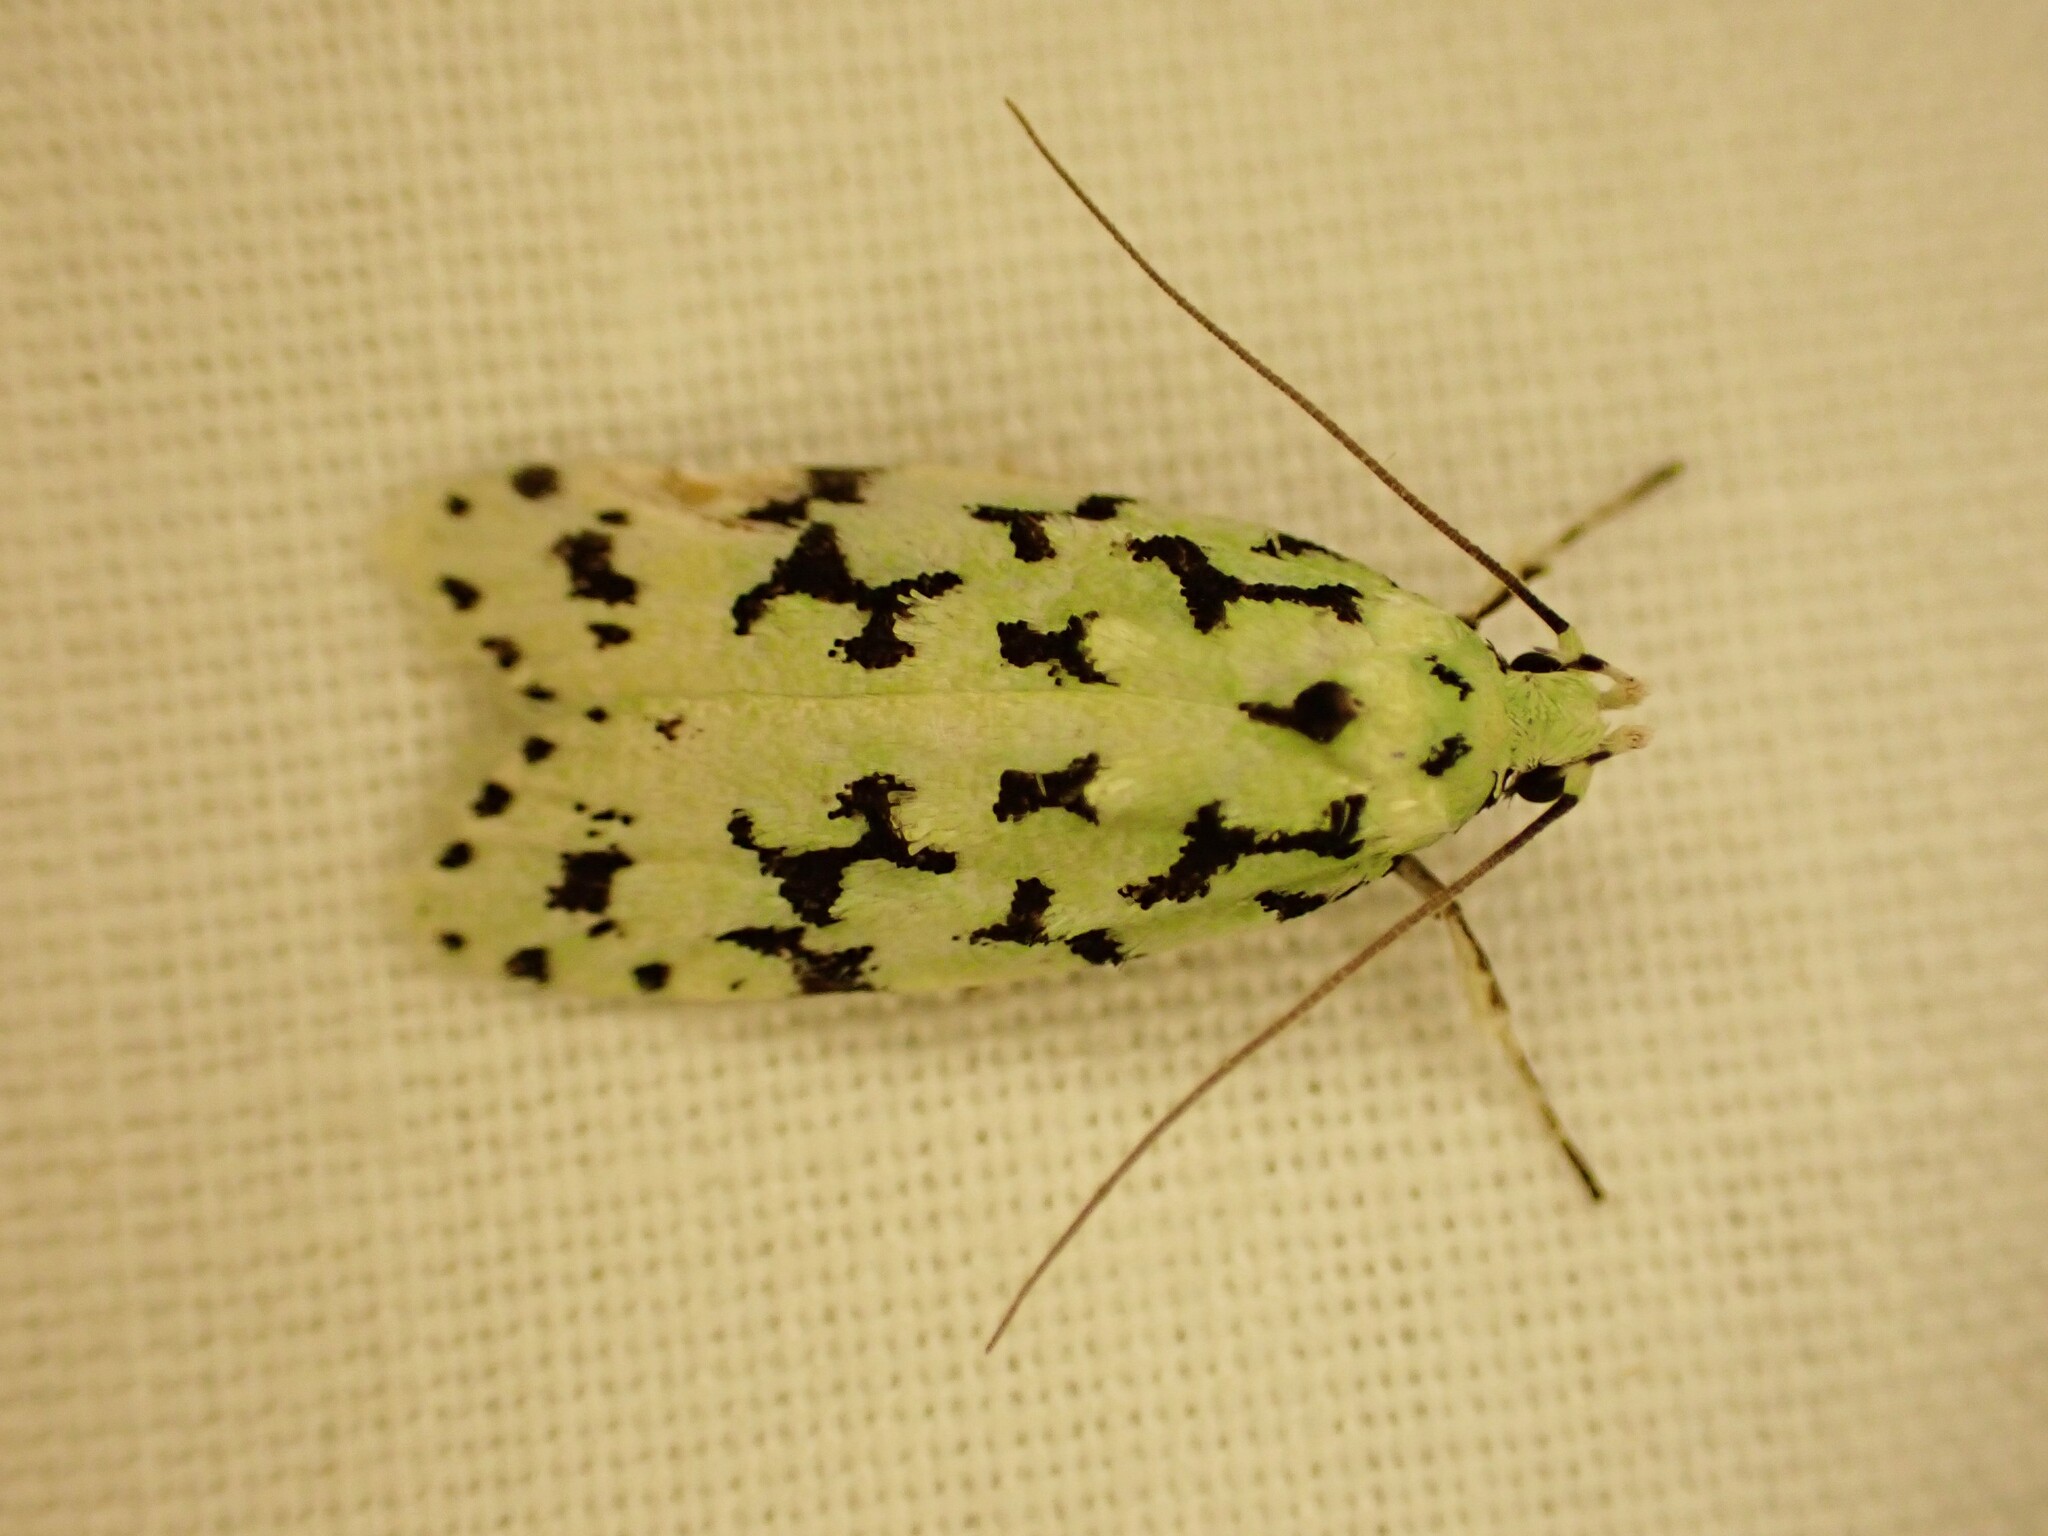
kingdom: Animalia
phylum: Arthropoda
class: Insecta
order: Lepidoptera
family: Oecophoridae
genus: Izatha
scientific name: Izatha huttoni
